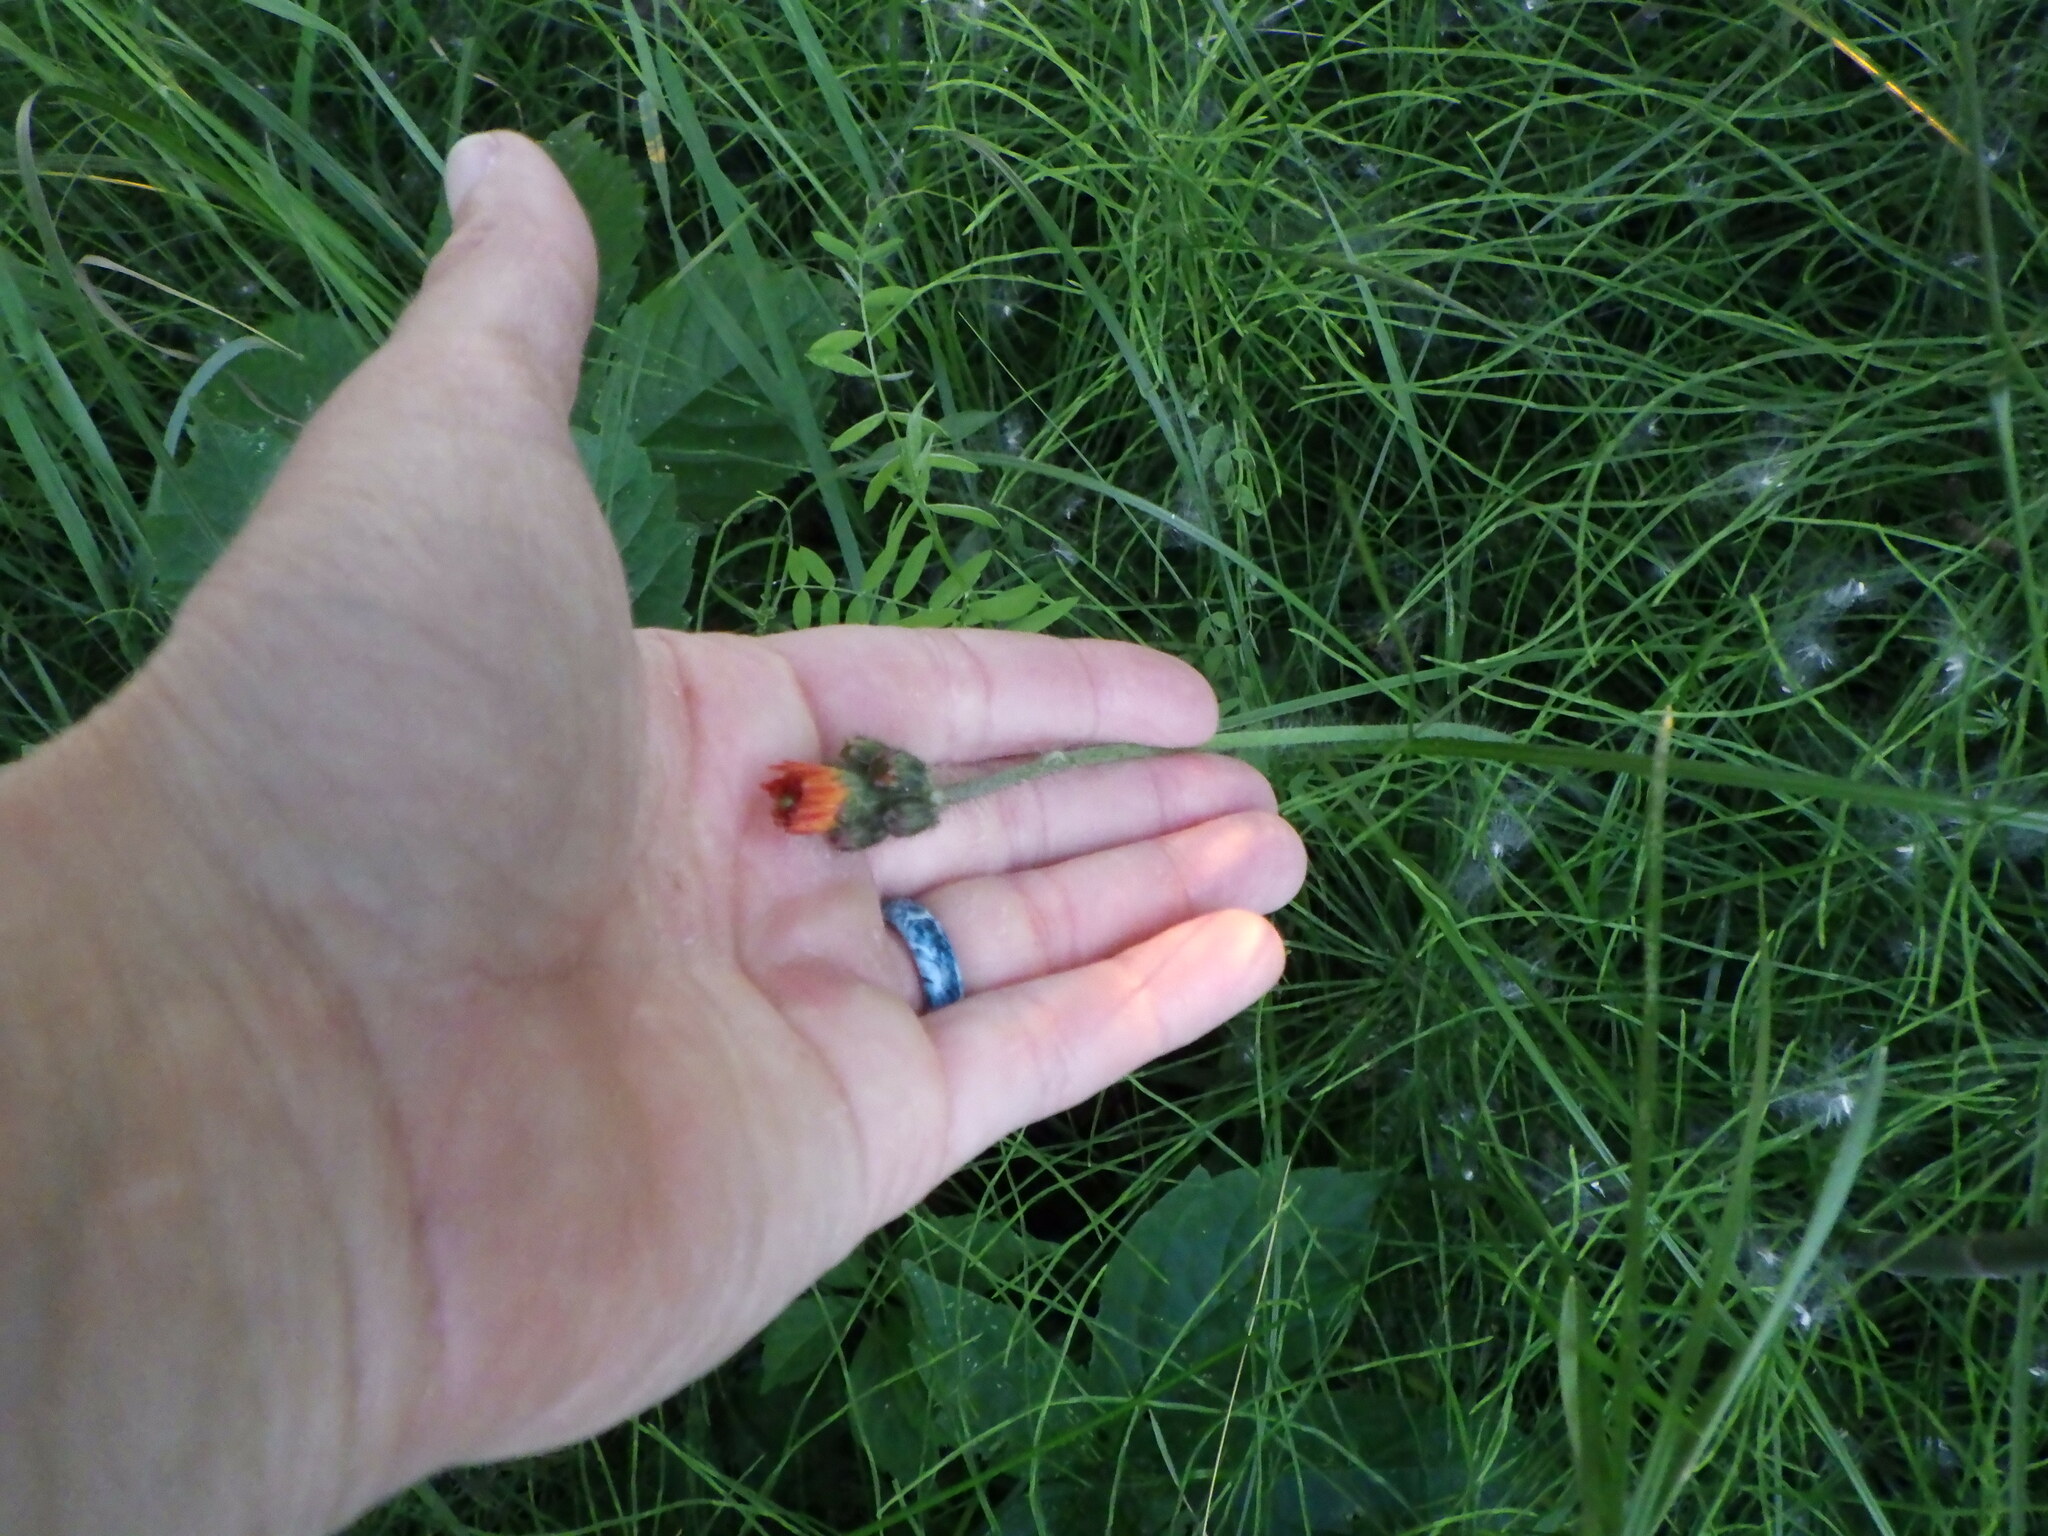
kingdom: Plantae
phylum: Tracheophyta
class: Magnoliopsida
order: Asterales
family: Asteraceae
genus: Pilosella
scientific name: Pilosella aurantiaca
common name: Fox-and-cubs
